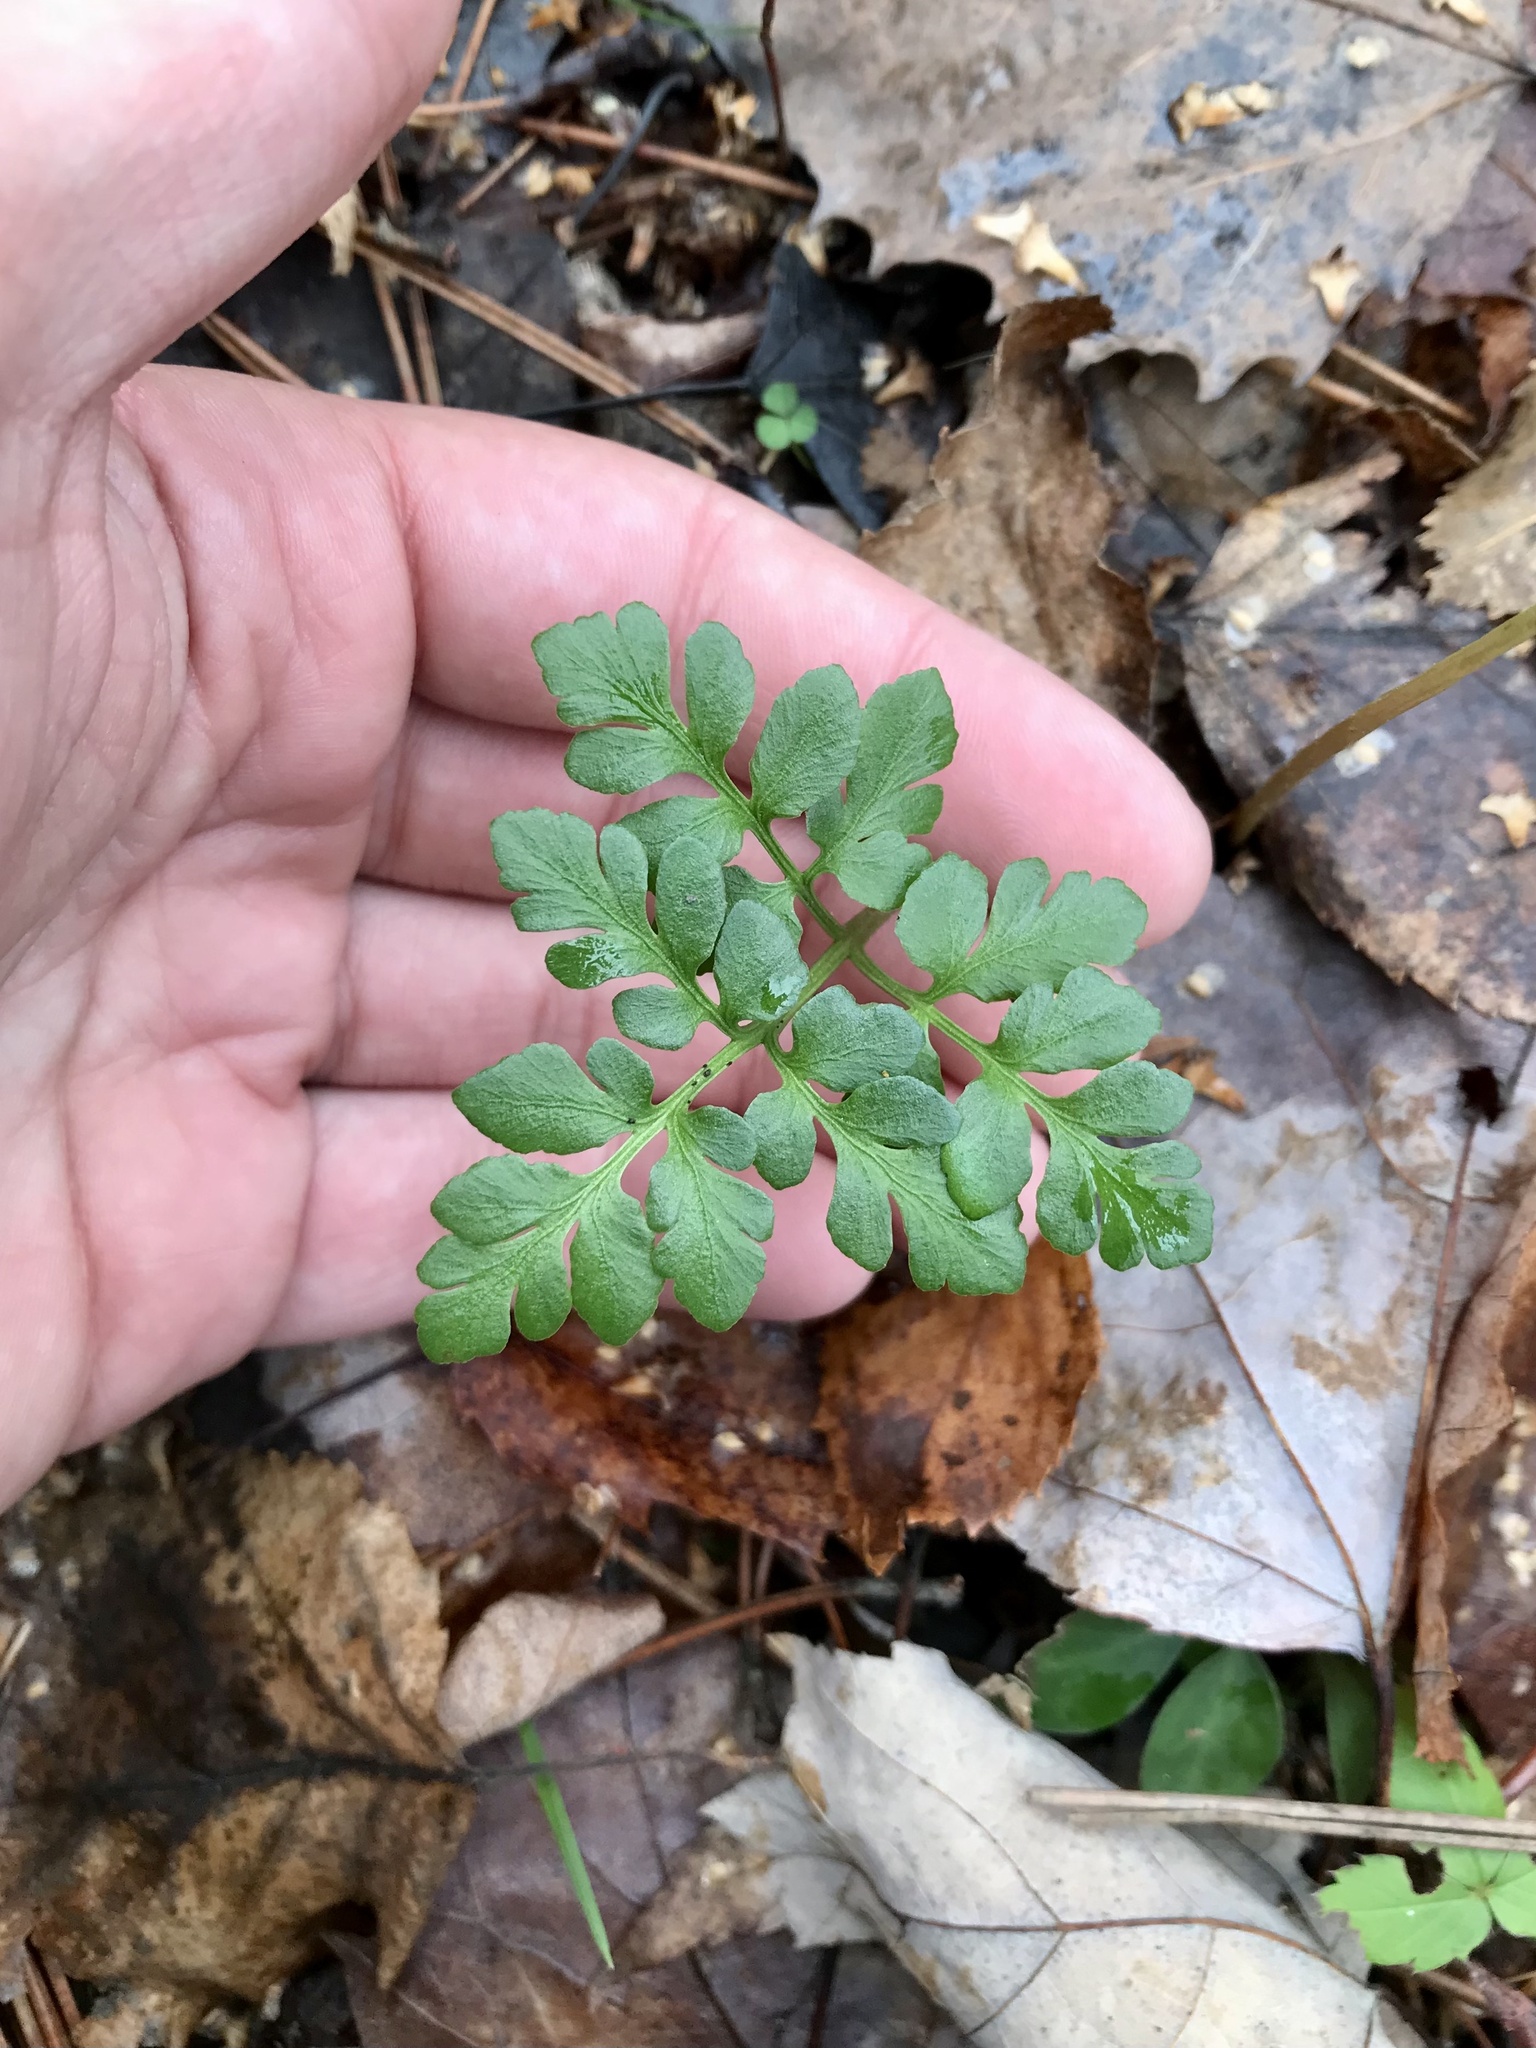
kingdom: Plantae
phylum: Tracheophyta
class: Polypodiopsida
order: Ophioglossales
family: Ophioglossaceae
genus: Sceptridium
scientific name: Sceptridium multifidum
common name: Leathery grape fern
